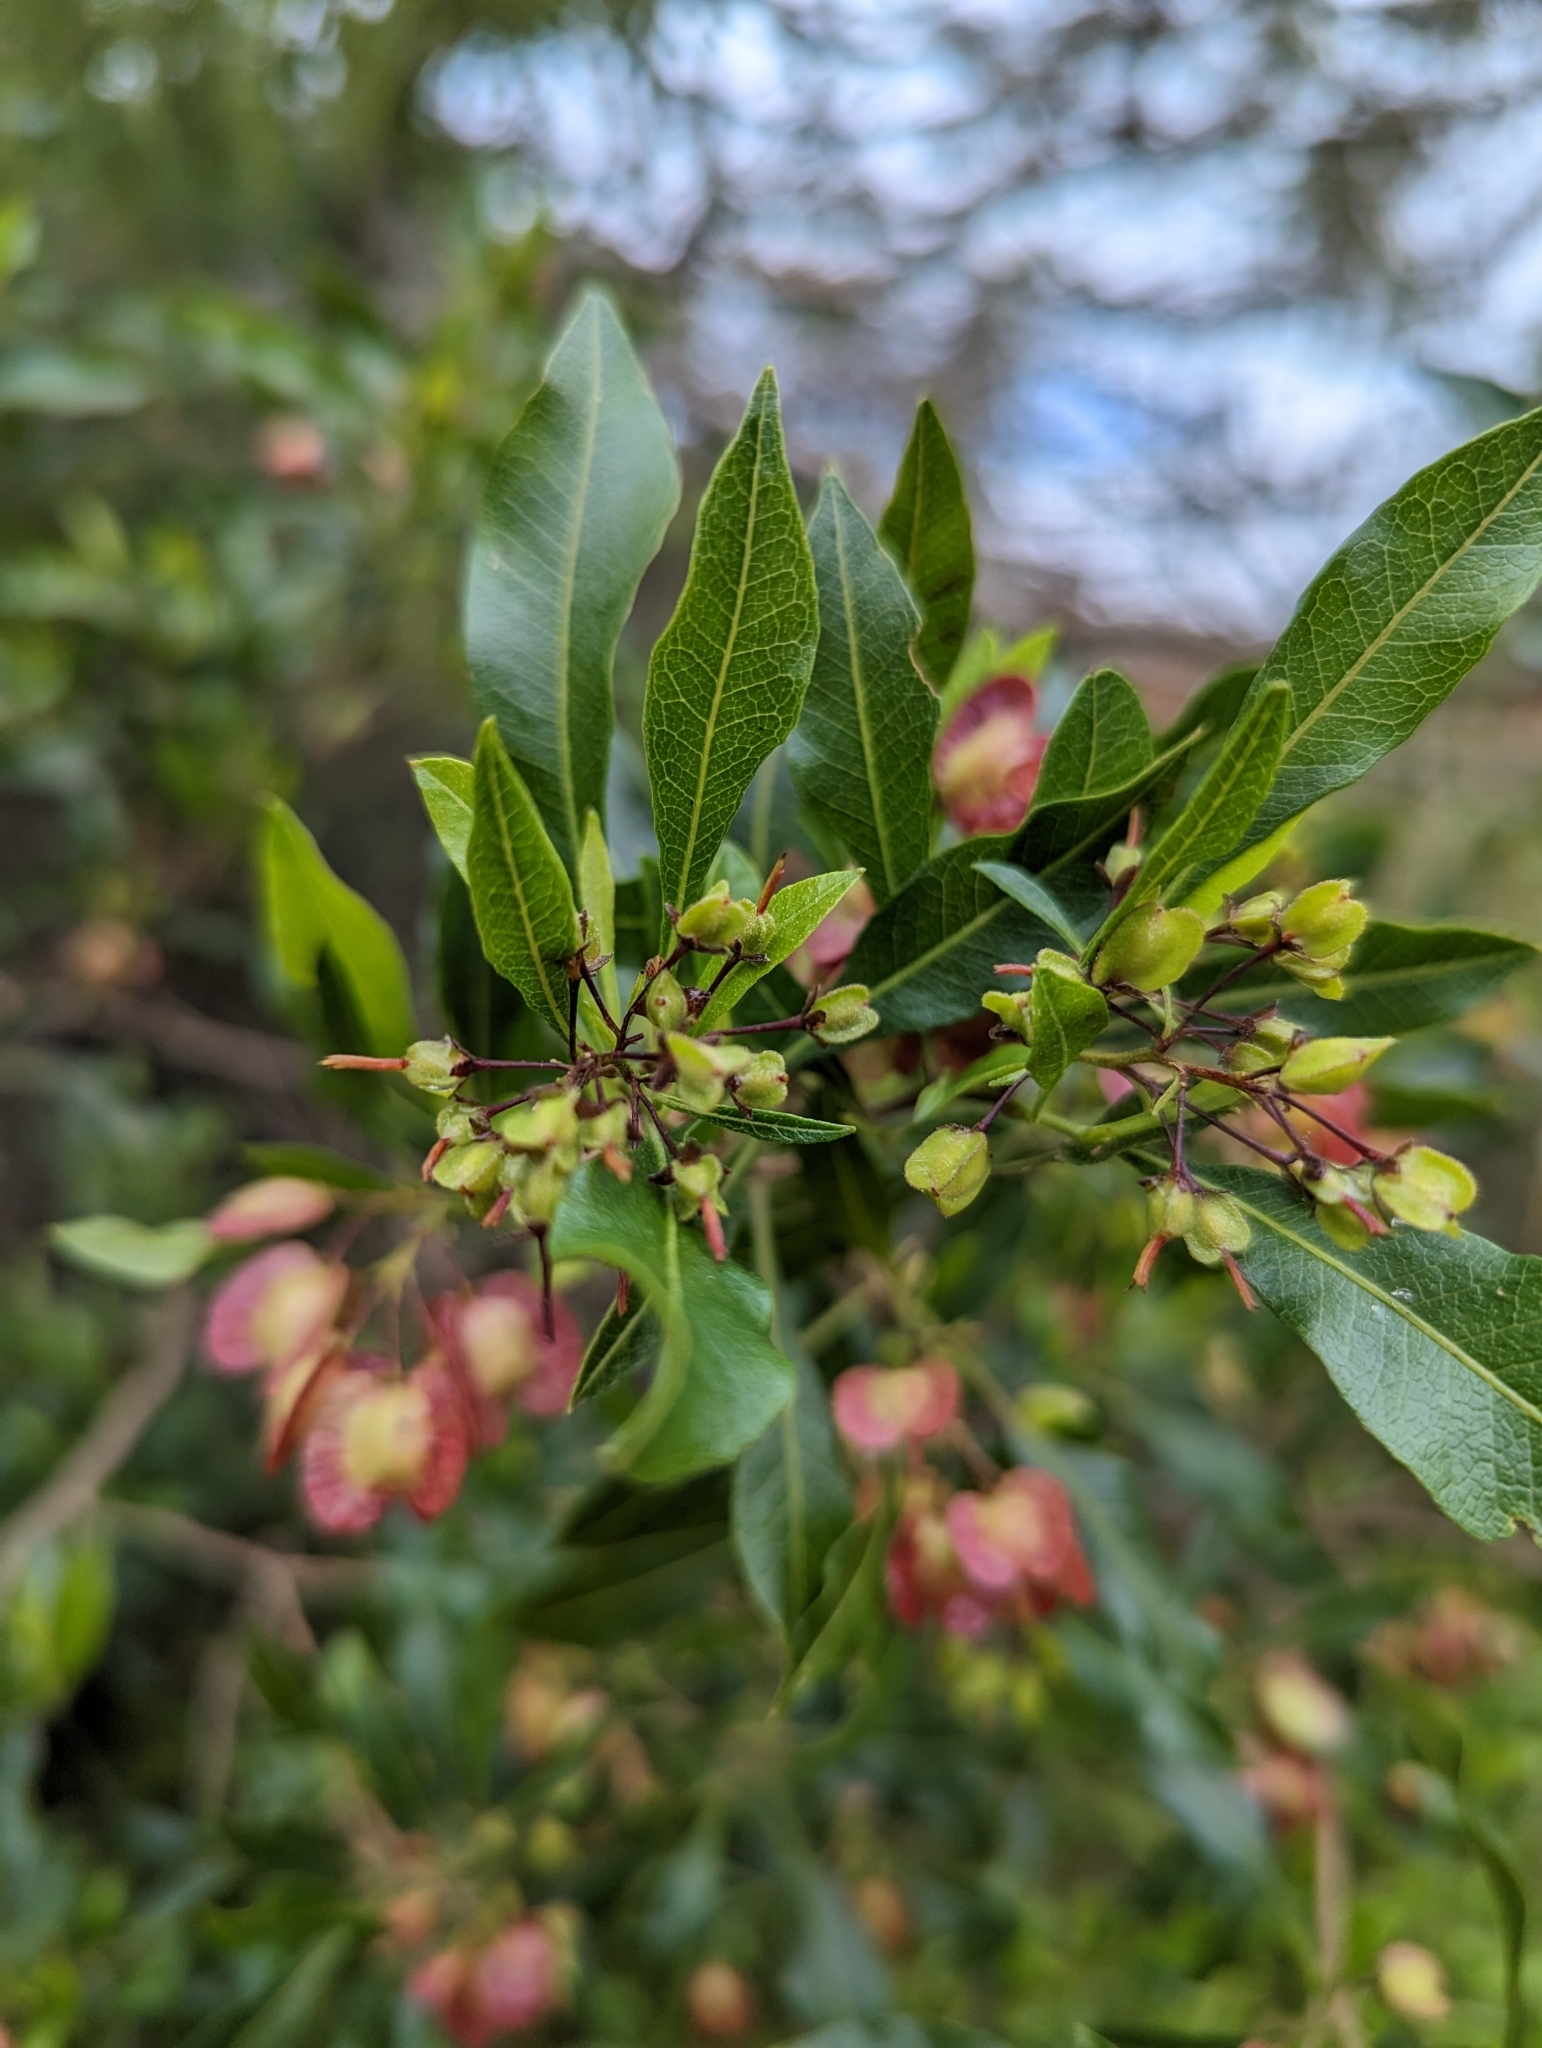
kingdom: Plantae
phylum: Tracheophyta
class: Magnoliopsida
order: Sapindales
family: Sapindaceae
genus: Dodonaea
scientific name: Dodonaea viscosa
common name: Hopbush
